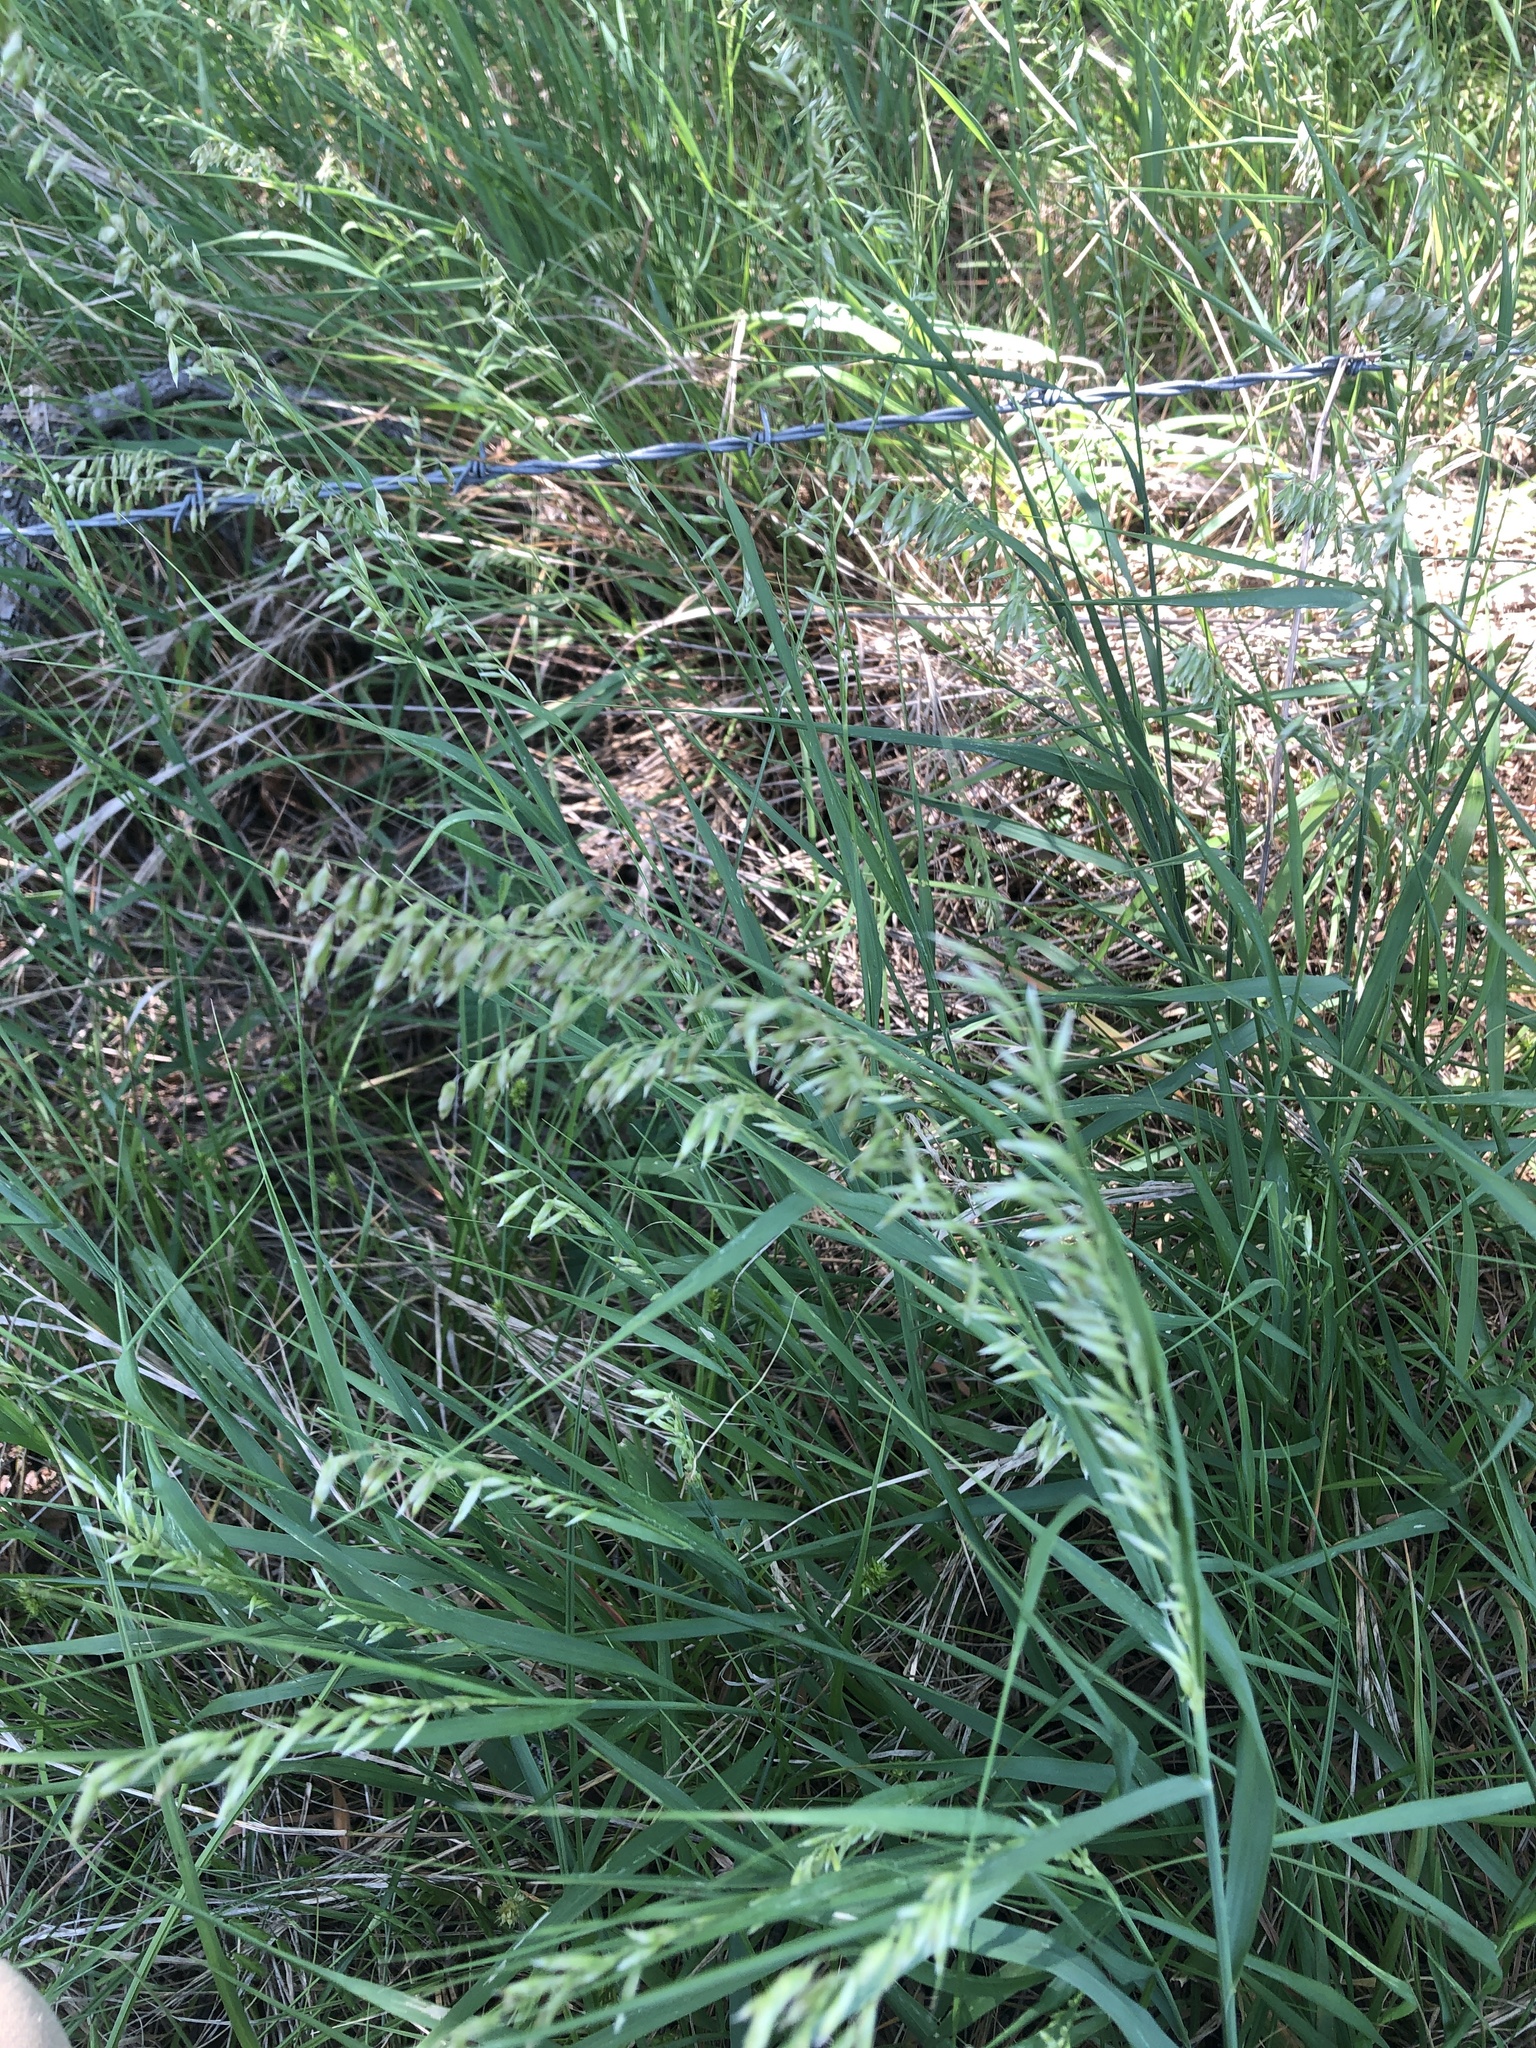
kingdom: Plantae
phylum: Tracheophyta
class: Liliopsida
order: Poales
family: Poaceae
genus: Melica
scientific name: Melica nitens
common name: Three-flower melic
